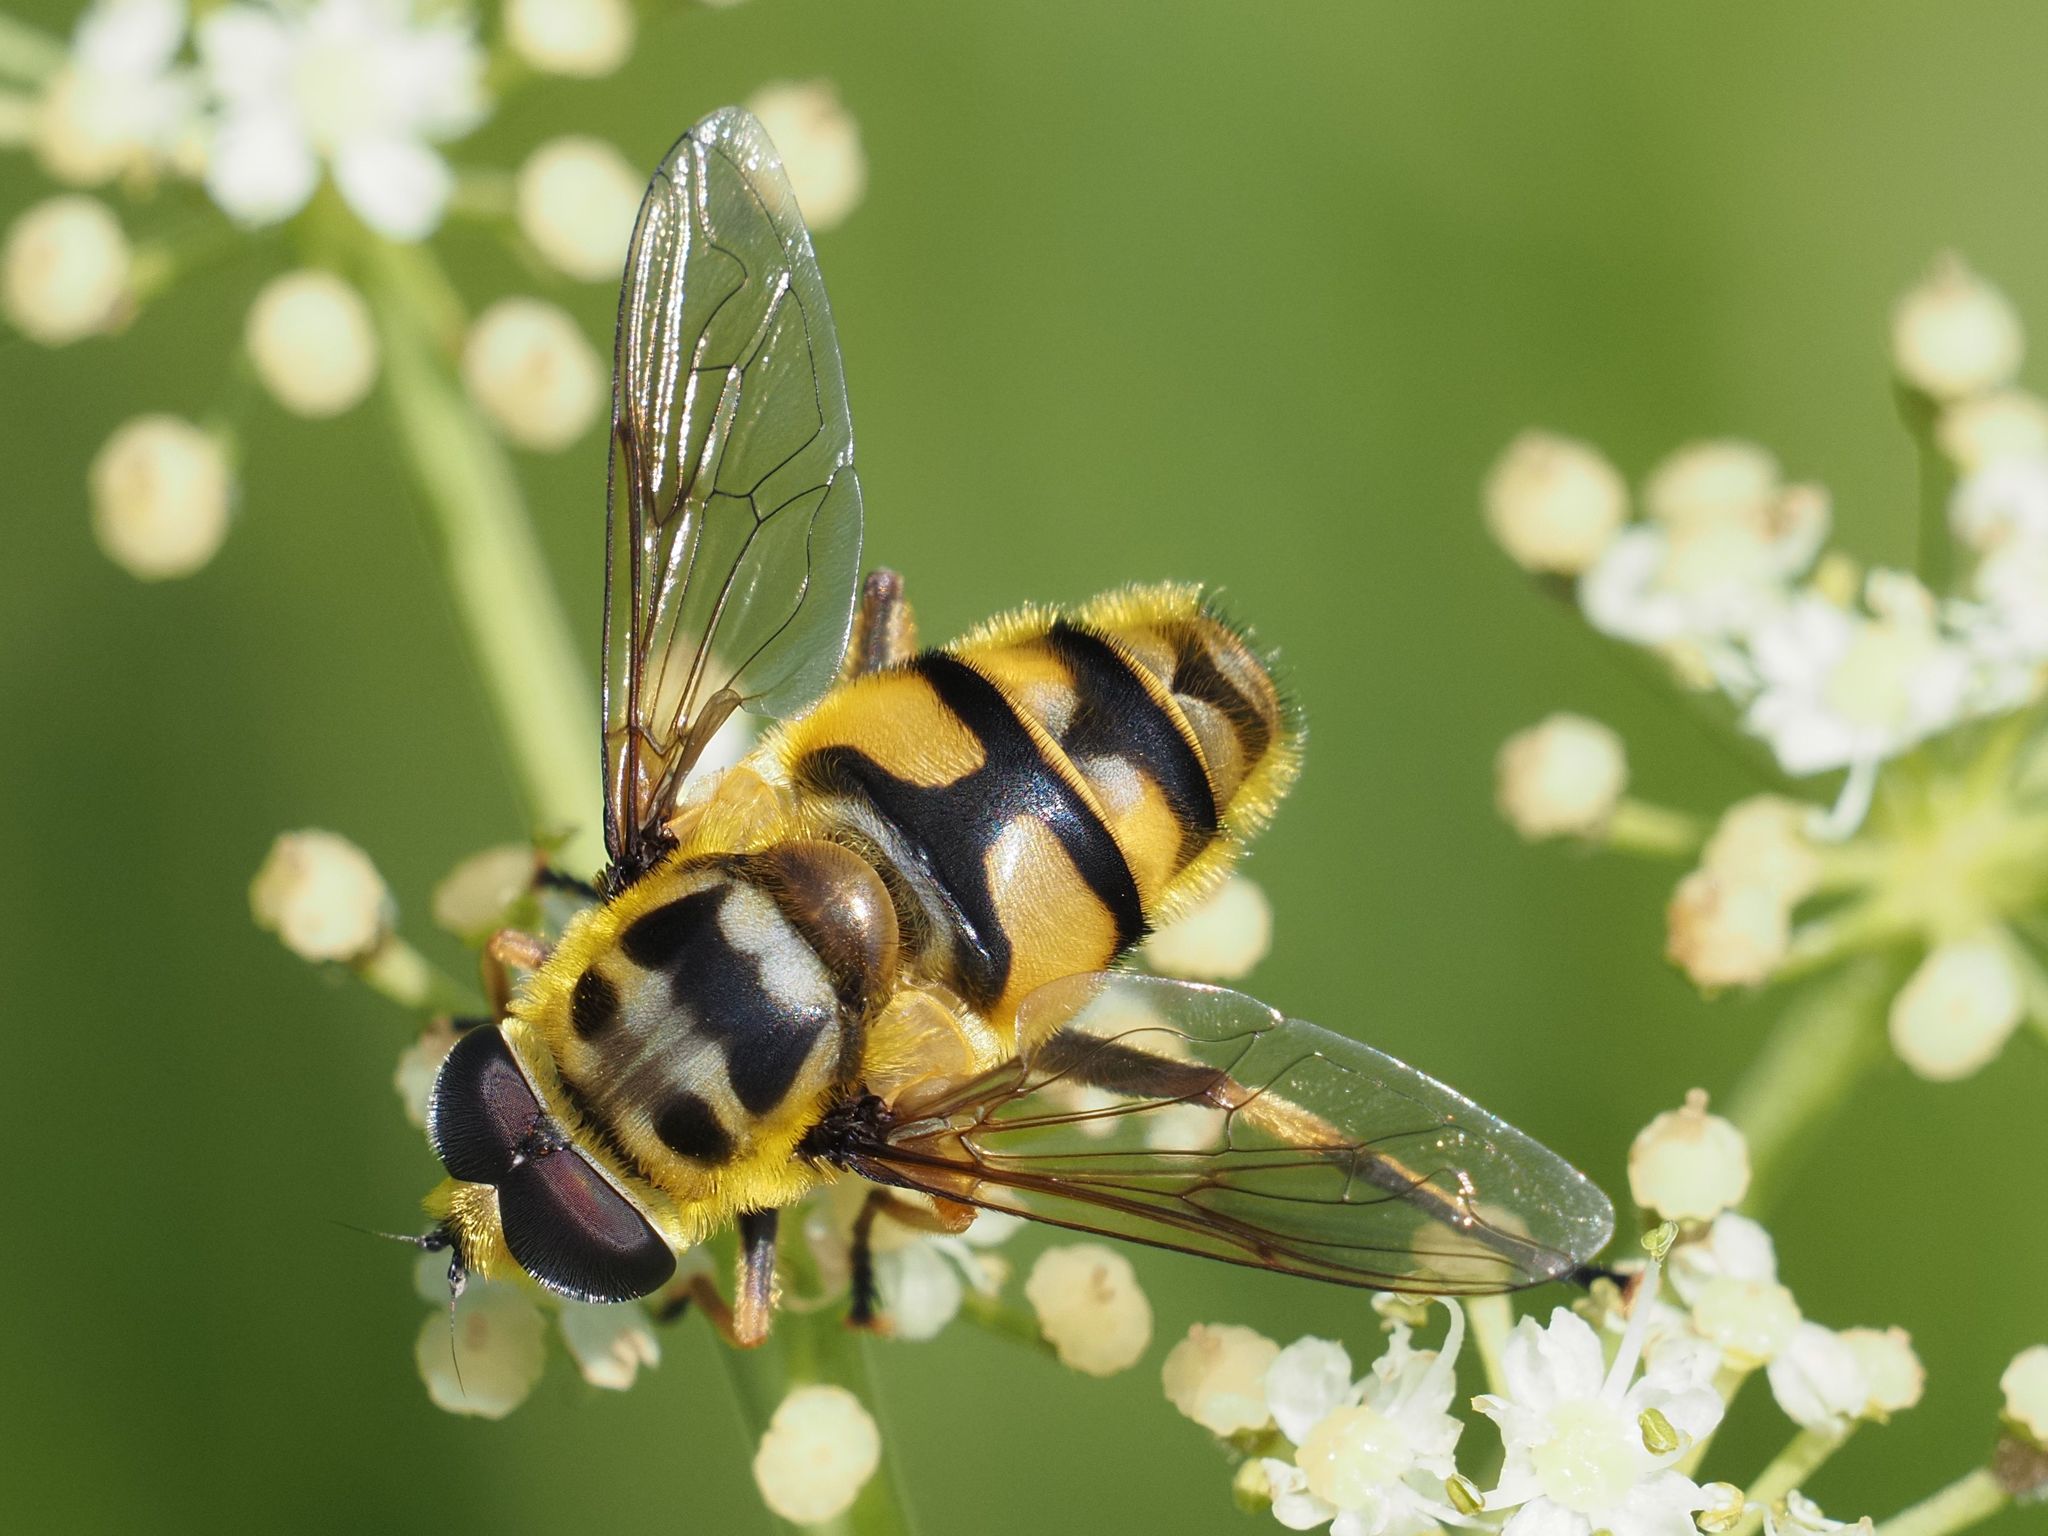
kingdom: Animalia
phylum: Arthropoda
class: Insecta
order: Diptera
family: Syrphidae
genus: Myathropa
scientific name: Myathropa florea
